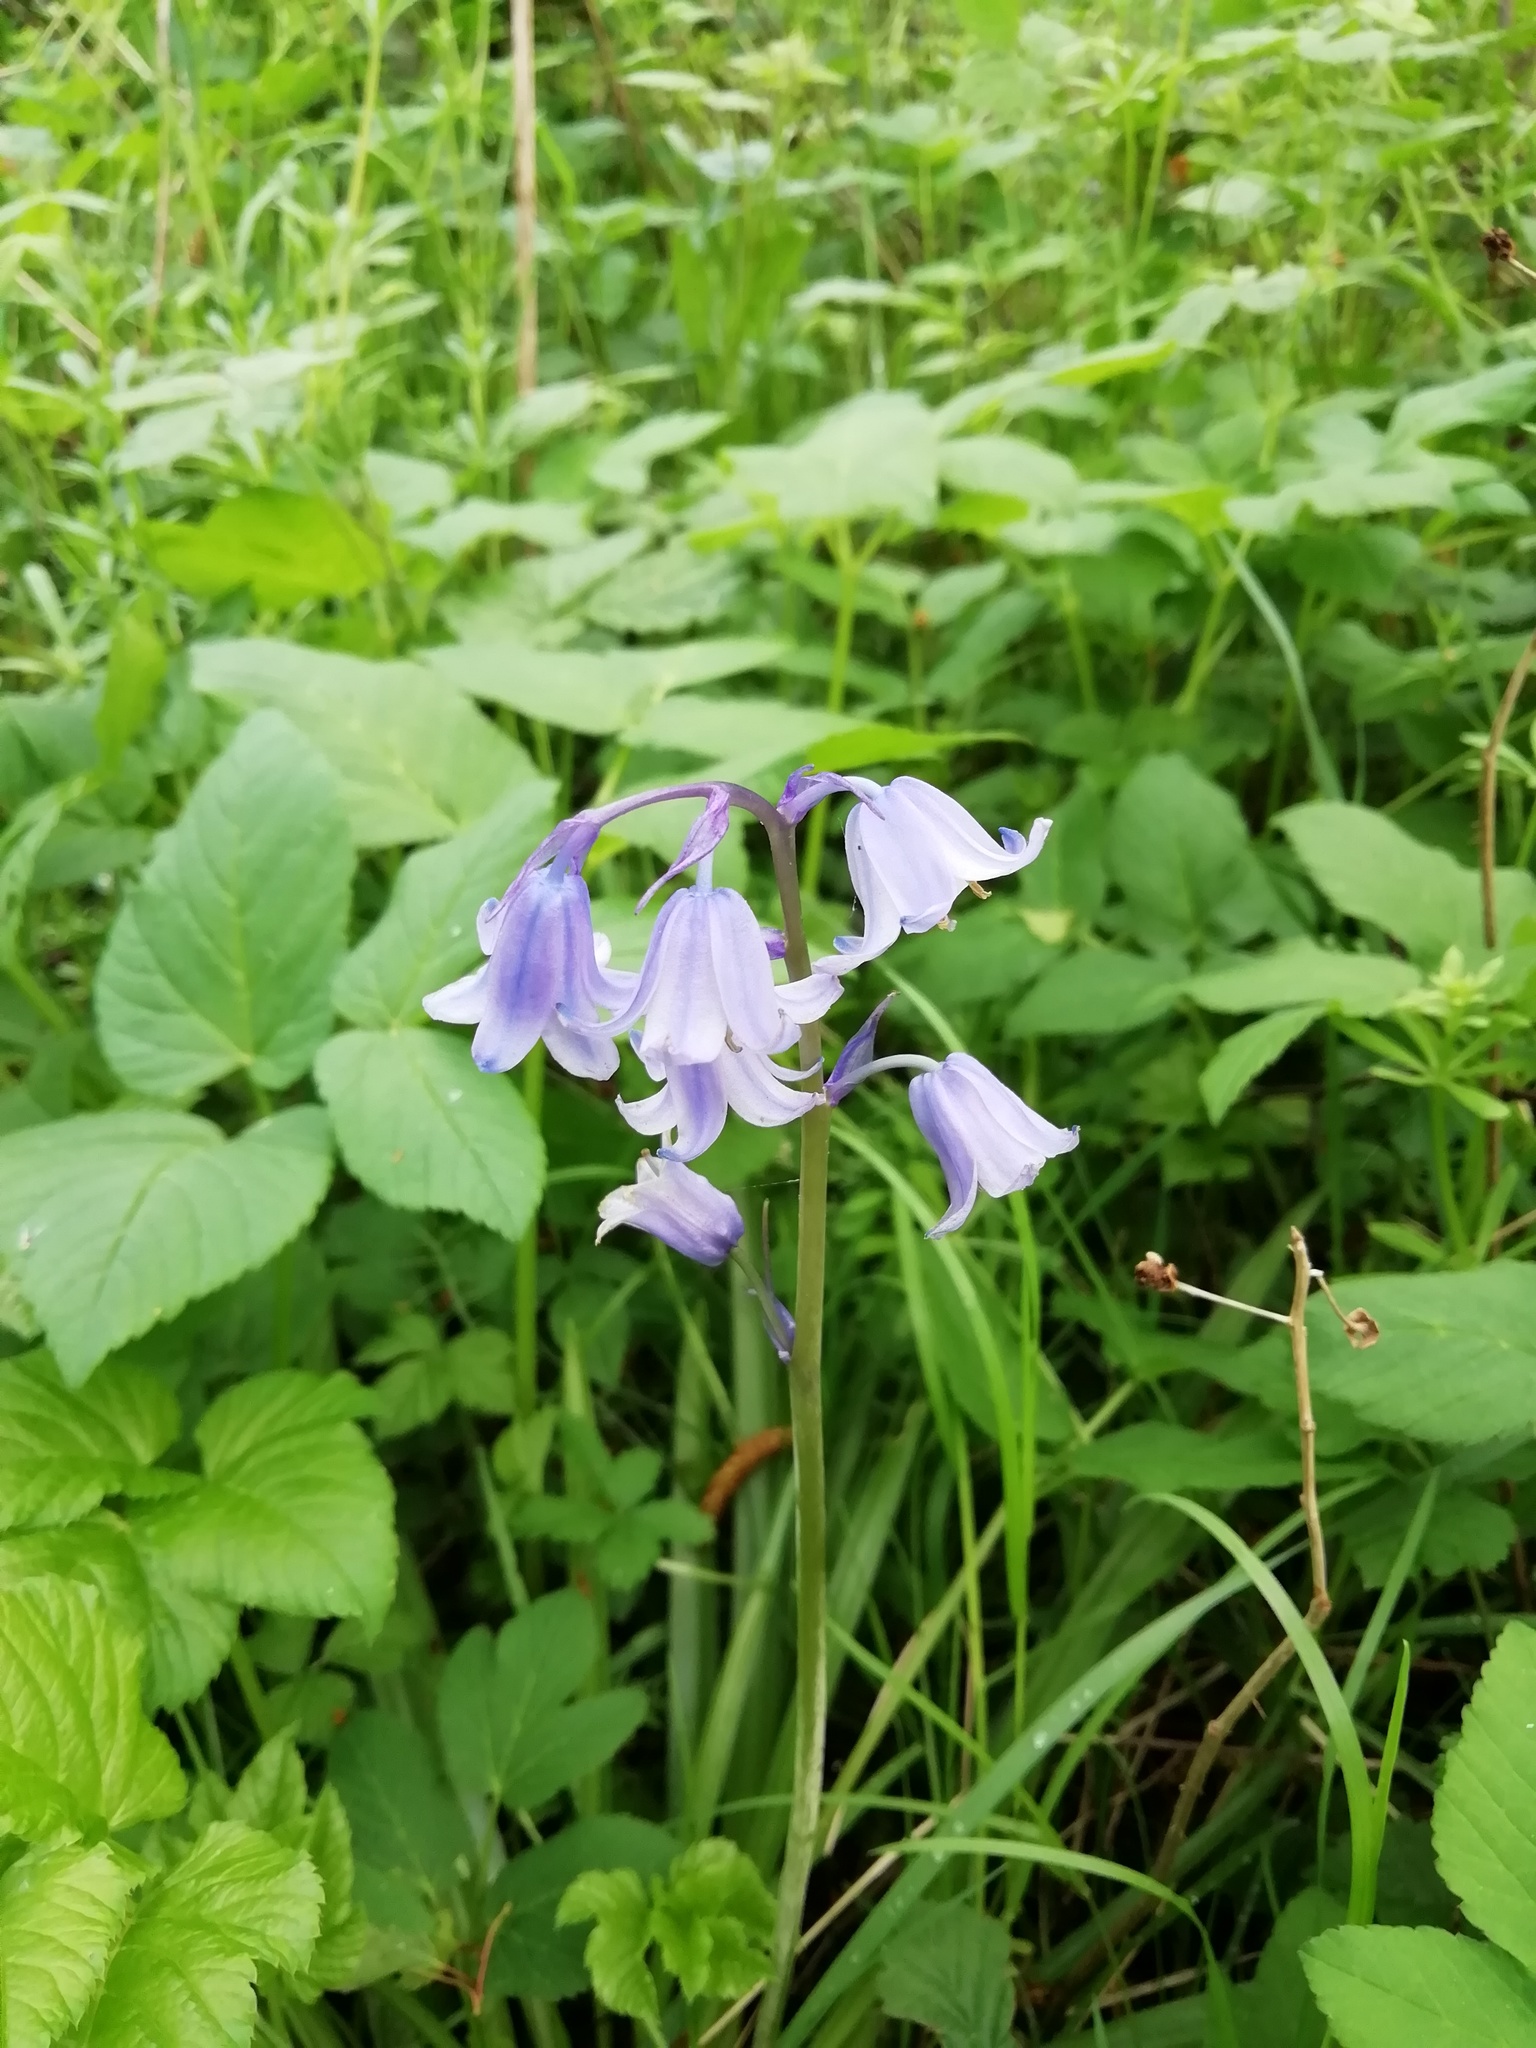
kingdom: Plantae
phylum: Tracheophyta
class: Liliopsida
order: Asparagales
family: Asparagaceae
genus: Hyacinthoides
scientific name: Hyacinthoides massartiana
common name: Hyacinthoides
